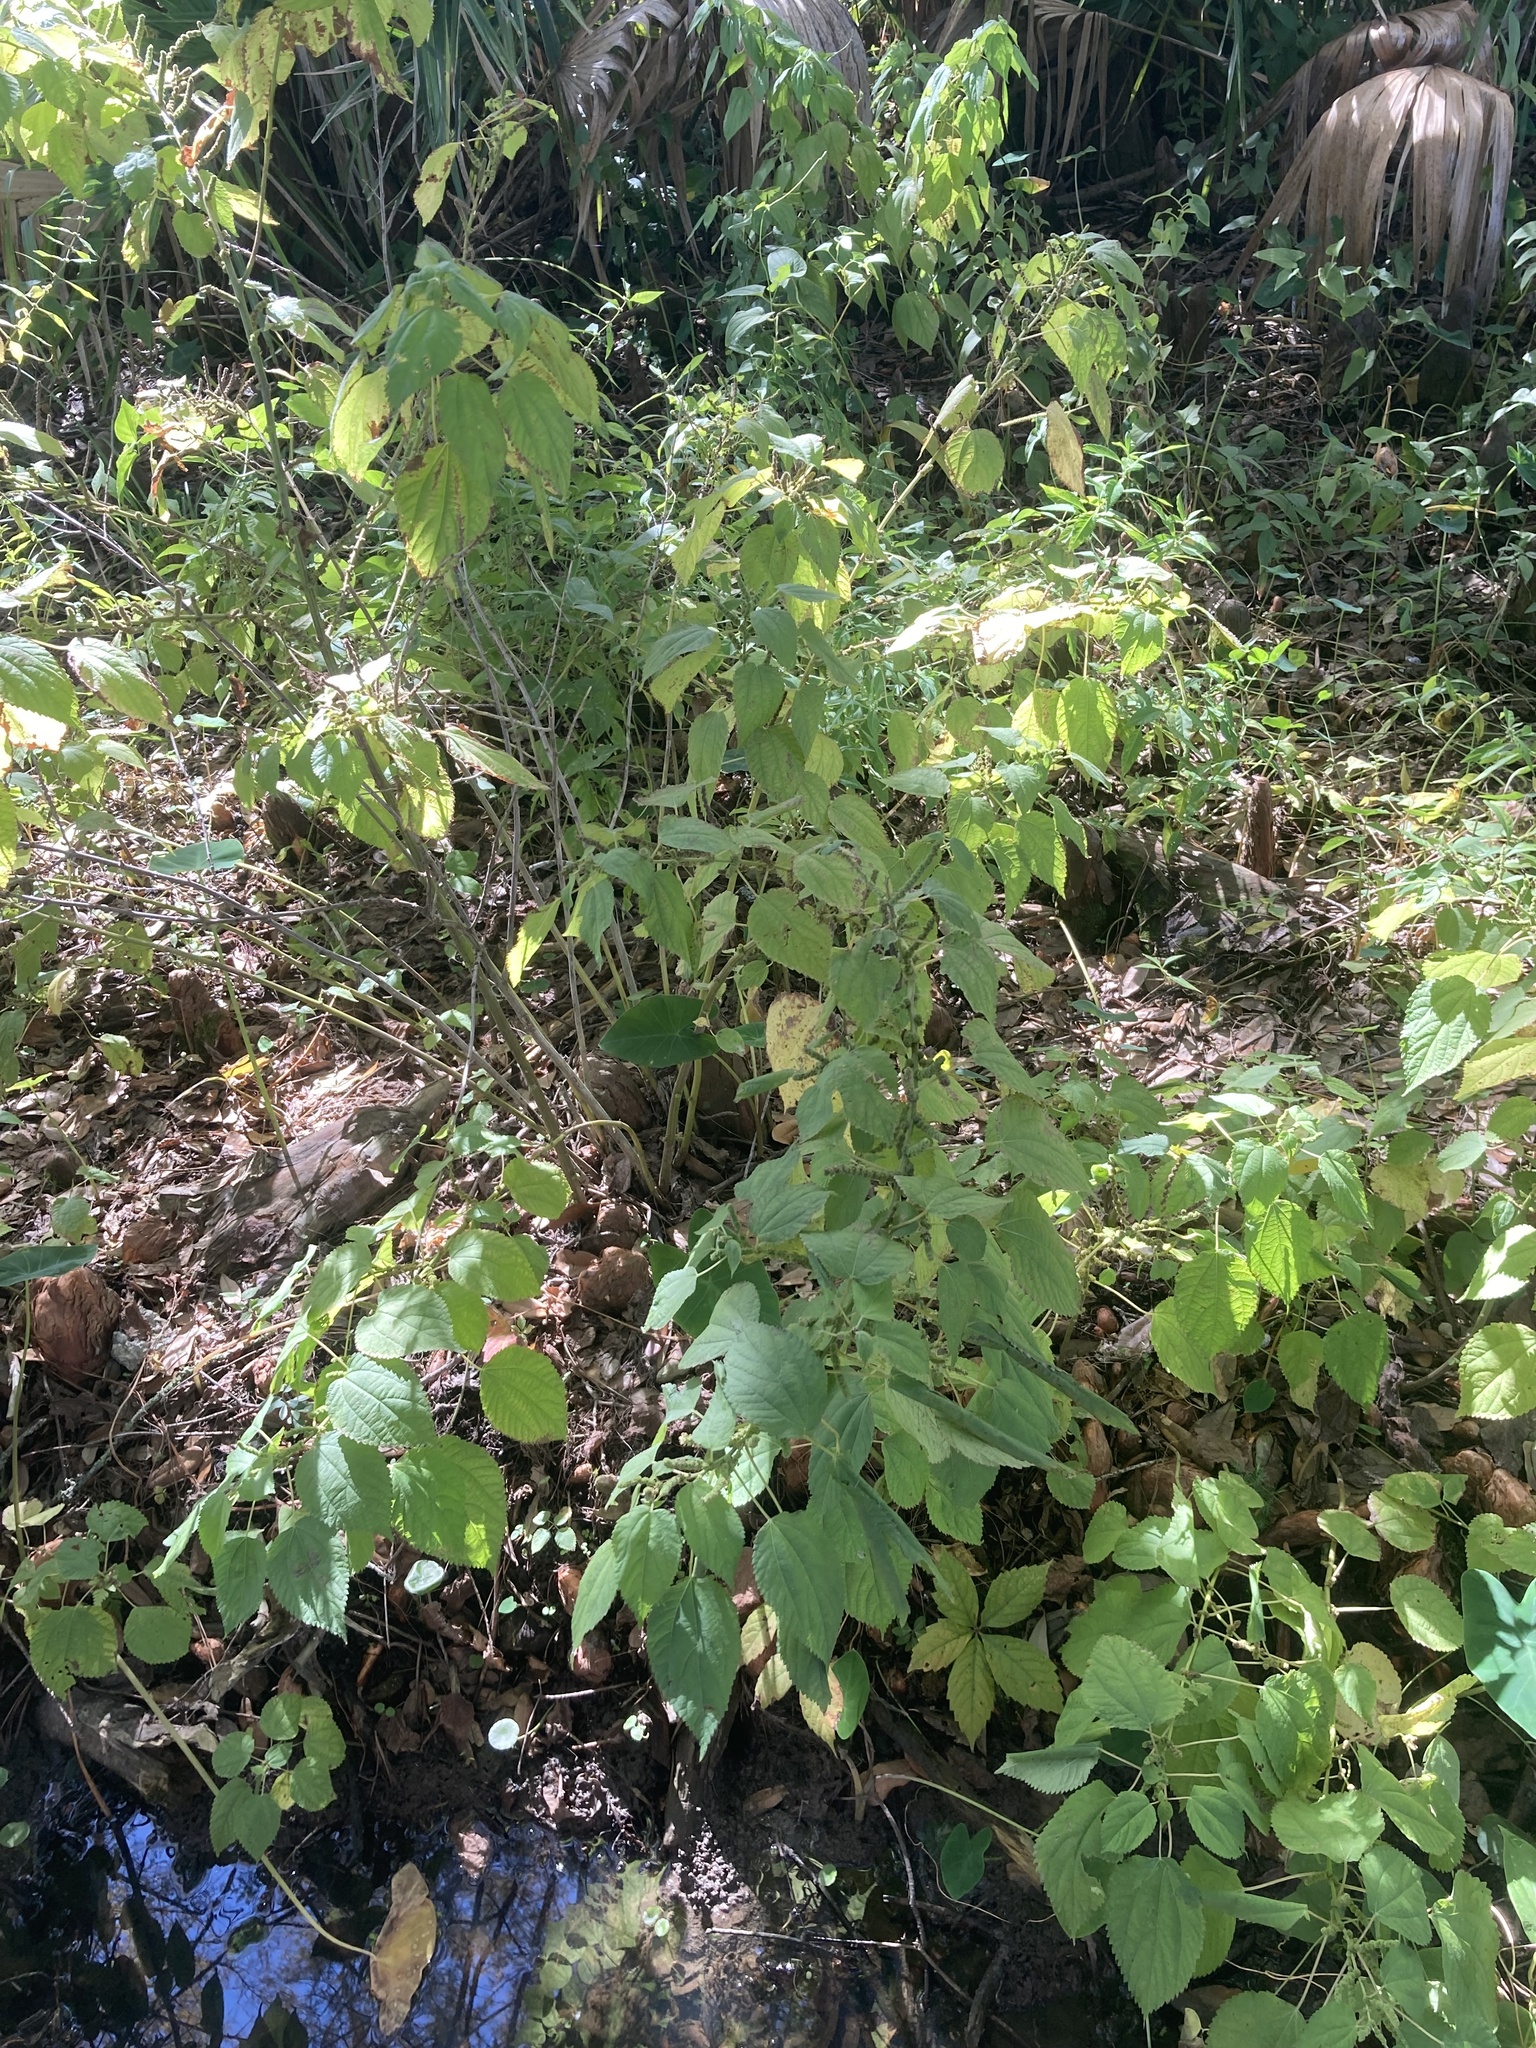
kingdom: Plantae
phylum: Tracheophyta
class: Magnoliopsida
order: Rosales
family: Urticaceae
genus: Boehmeria
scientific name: Boehmeria cylindrica
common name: Bog-hemp
